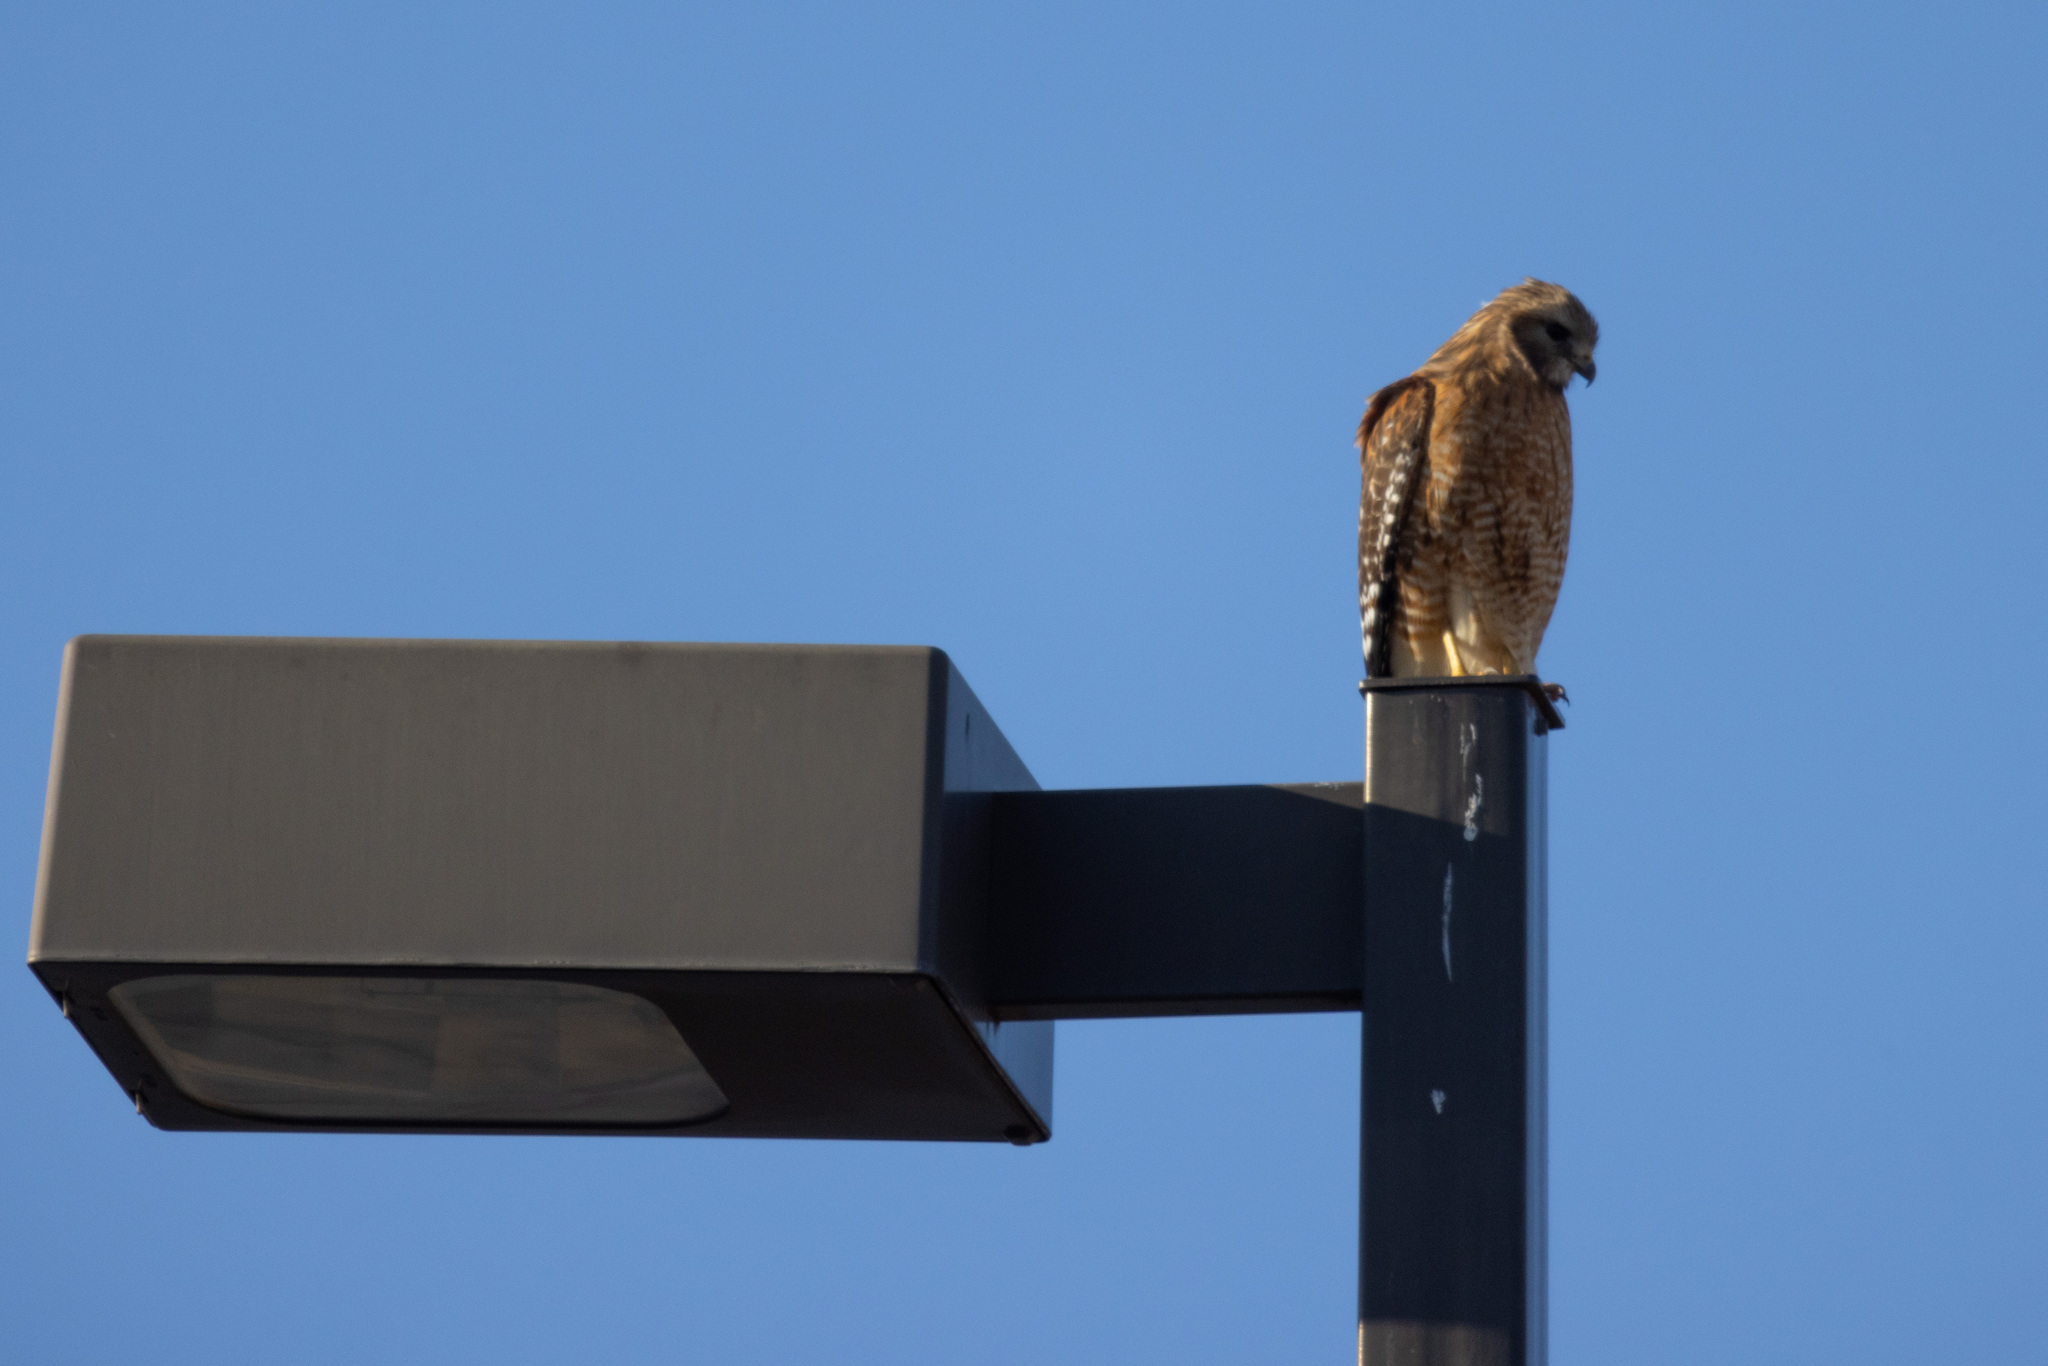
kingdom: Animalia
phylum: Chordata
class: Aves
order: Accipitriformes
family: Accipitridae
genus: Buteo
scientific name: Buteo lineatus
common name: Red-shouldered hawk
